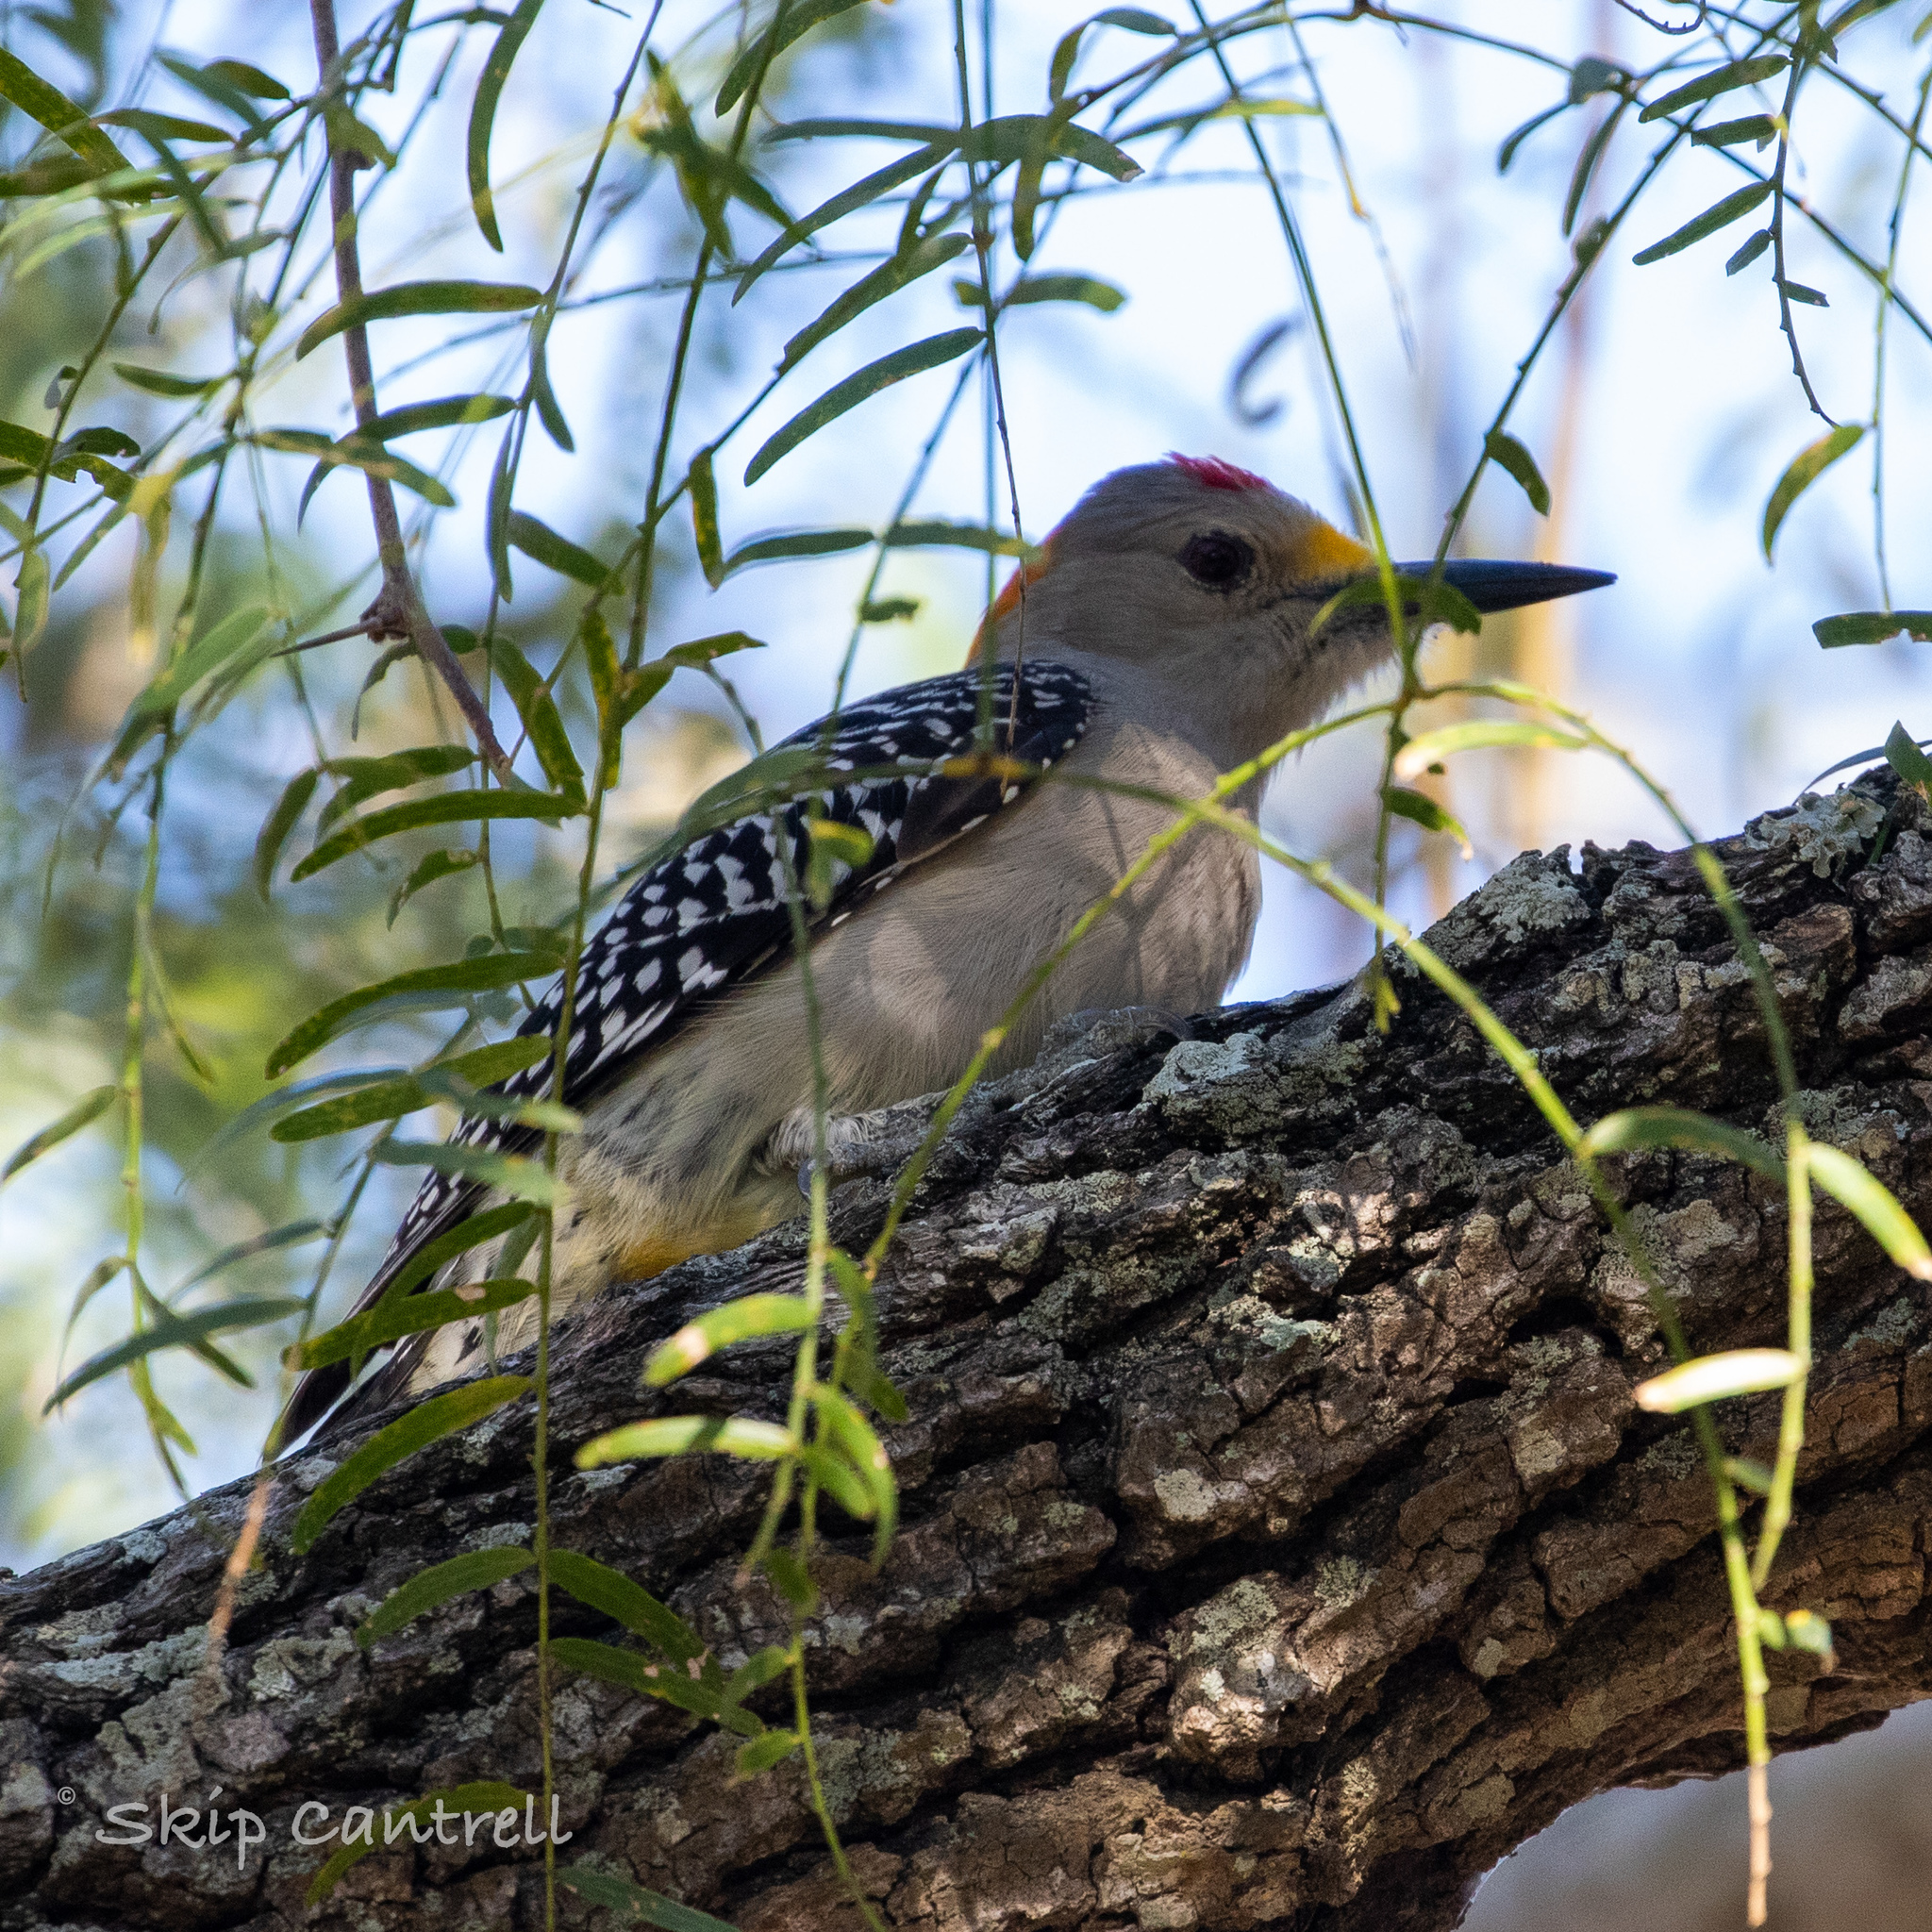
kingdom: Animalia
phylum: Chordata
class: Aves
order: Piciformes
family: Picidae
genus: Melanerpes
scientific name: Melanerpes aurifrons
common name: Golden-fronted woodpecker
